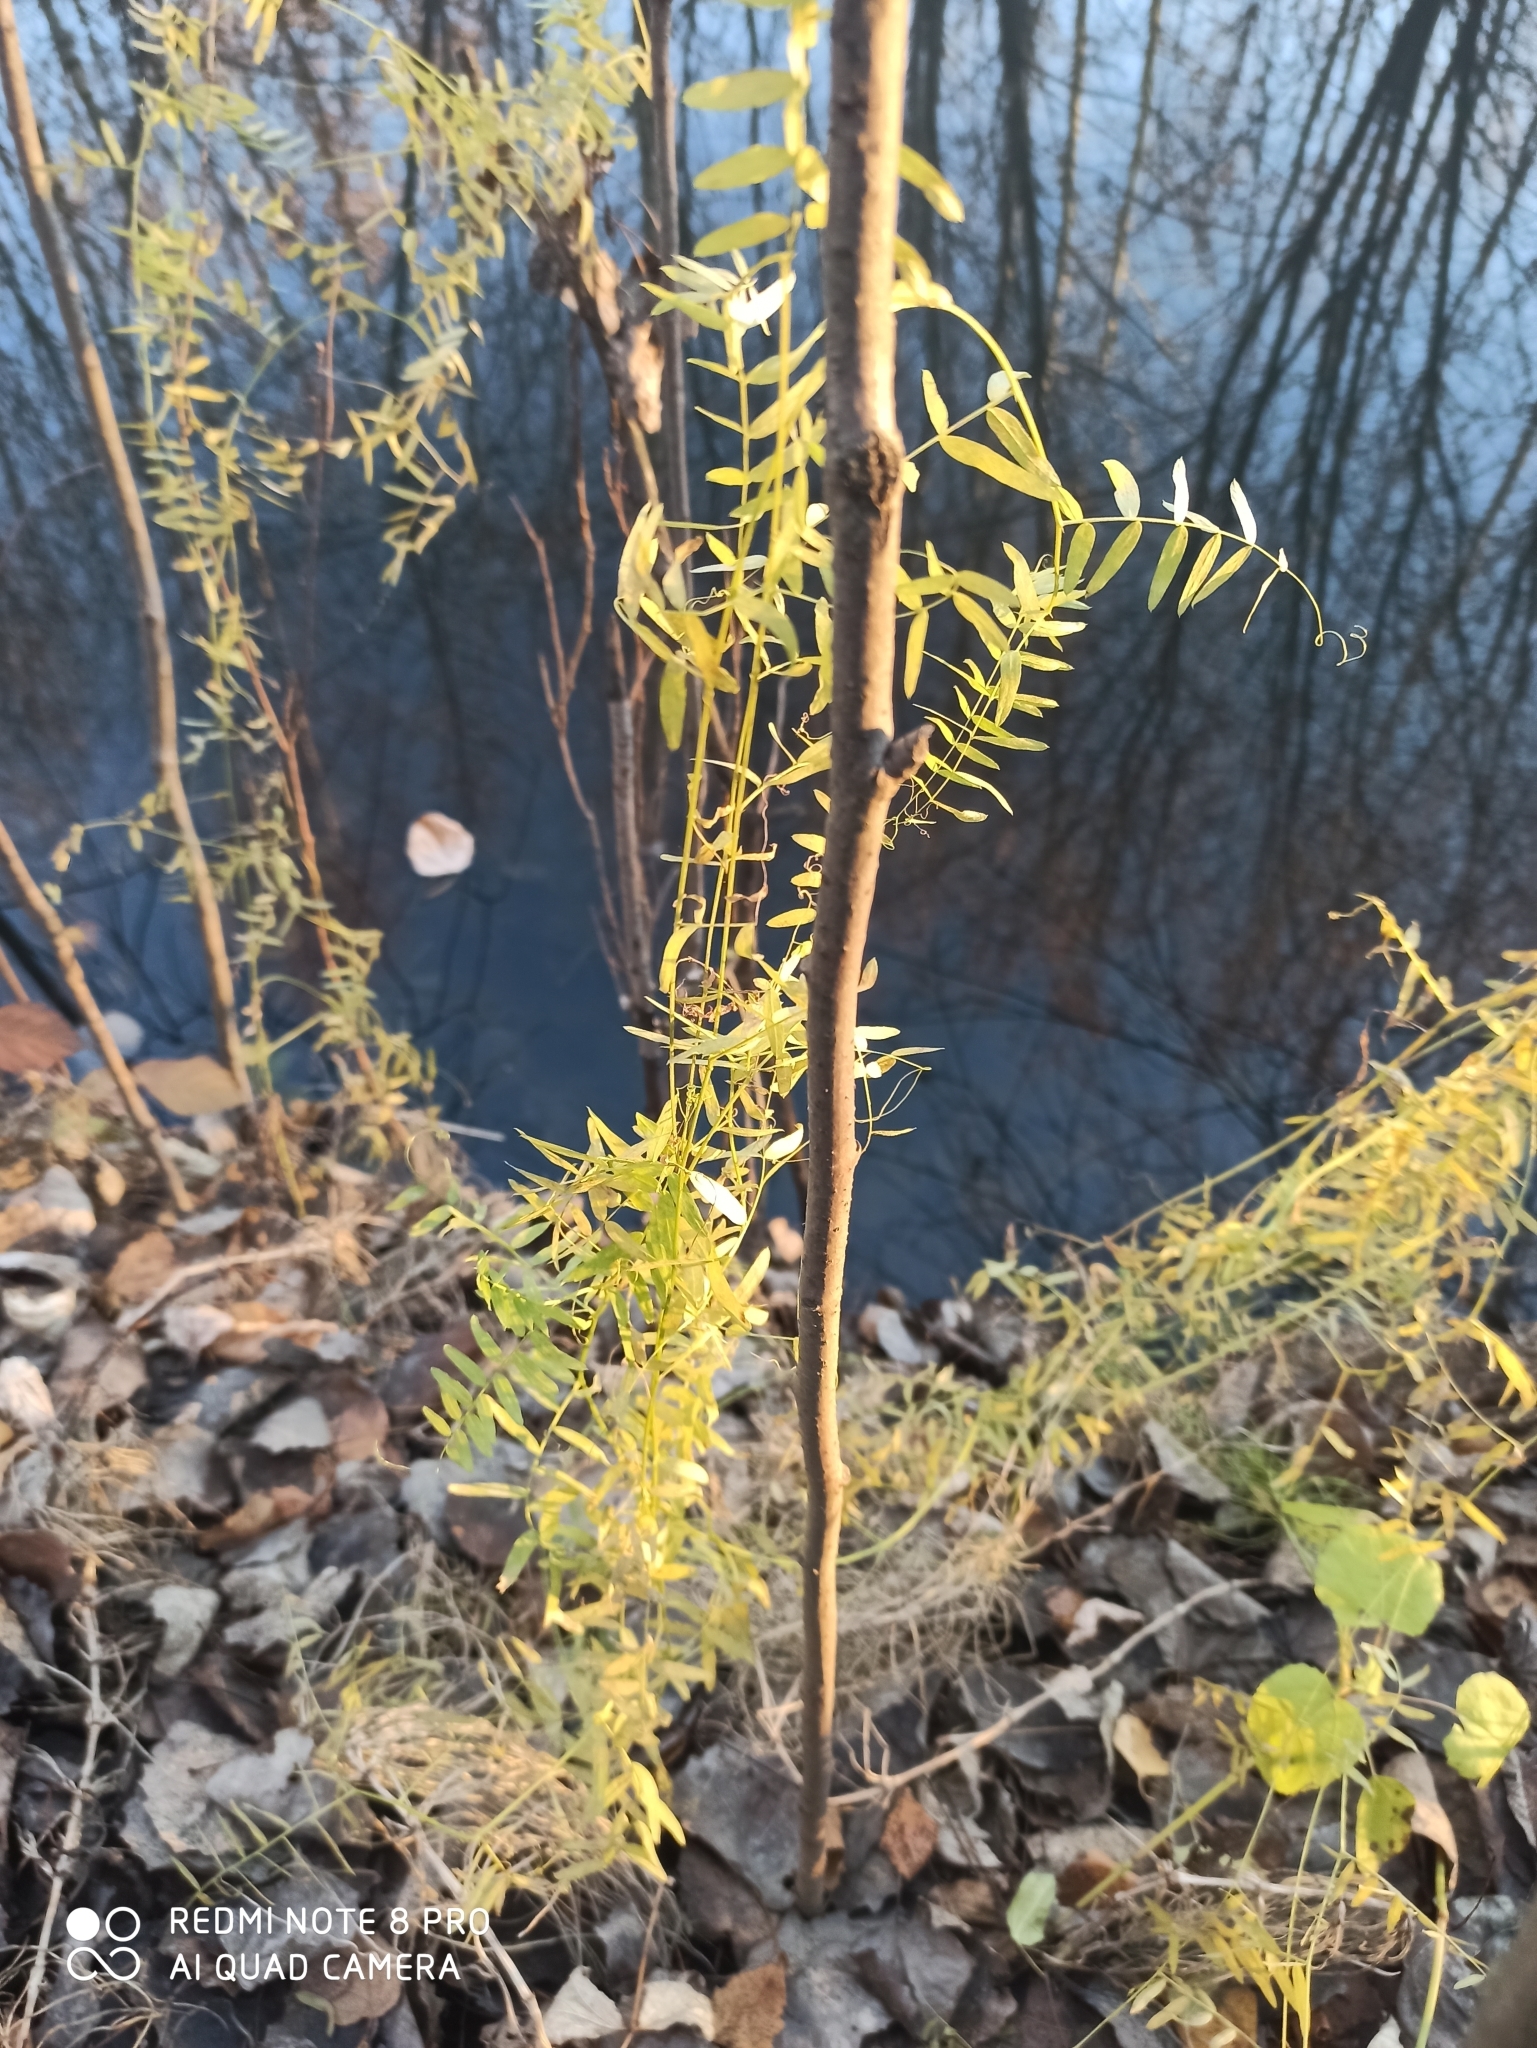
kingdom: Plantae
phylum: Tracheophyta
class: Magnoliopsida
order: Fabales
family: Fabaceae
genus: Vicia
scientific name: Vicia cracca
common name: Bird vetch
